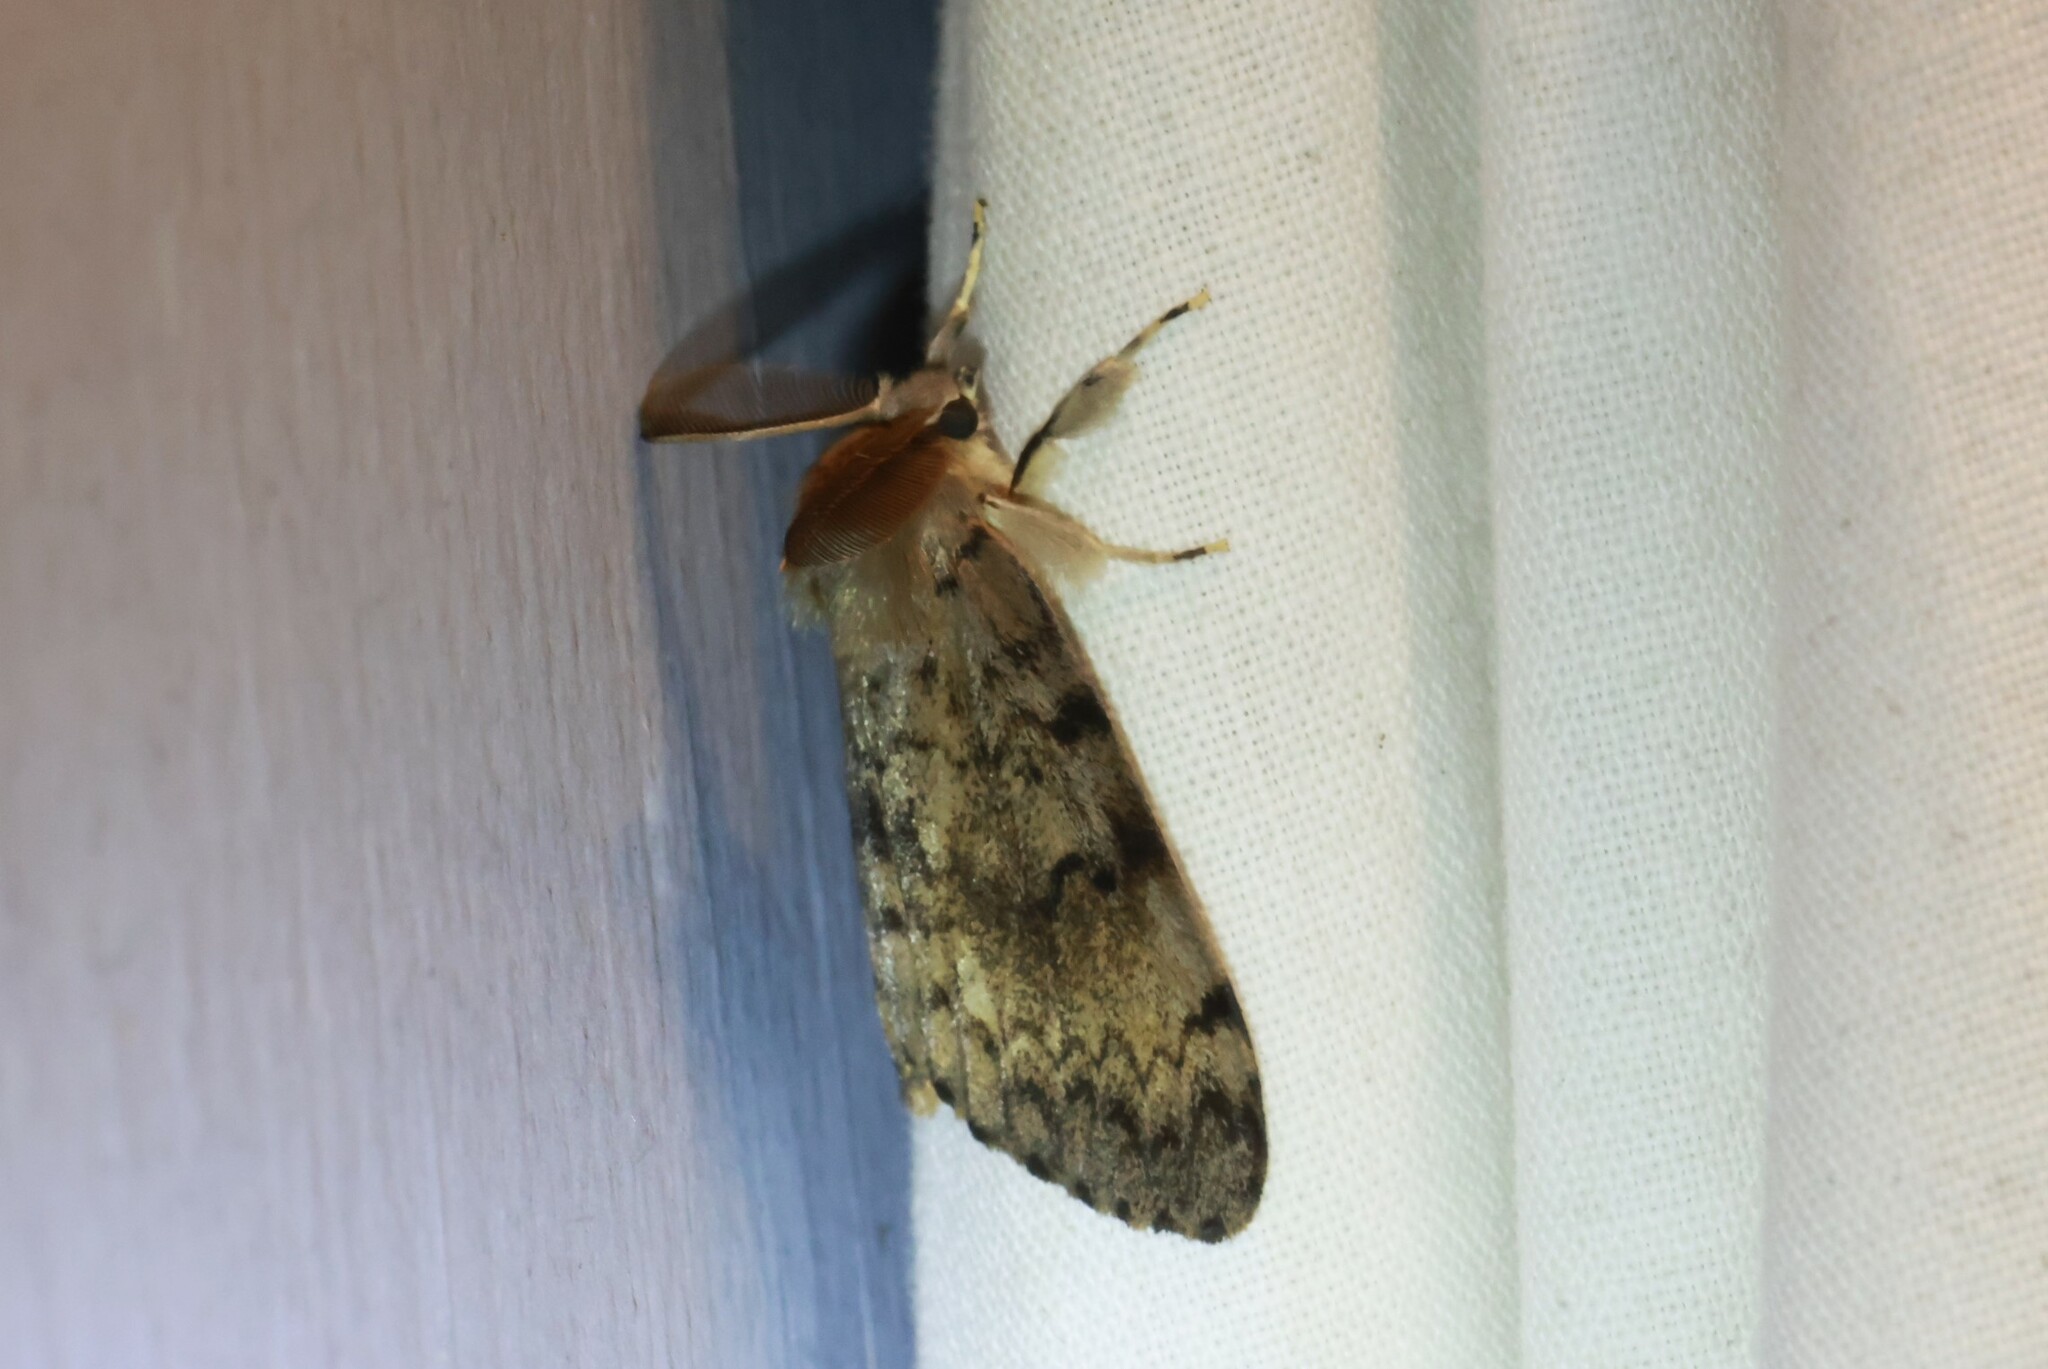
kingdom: Animalia
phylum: Arthropoda
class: Insecta
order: Lepidoptera
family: Erebidae
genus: Lymantria
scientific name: Lymantria dispar
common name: Gypsy moth
